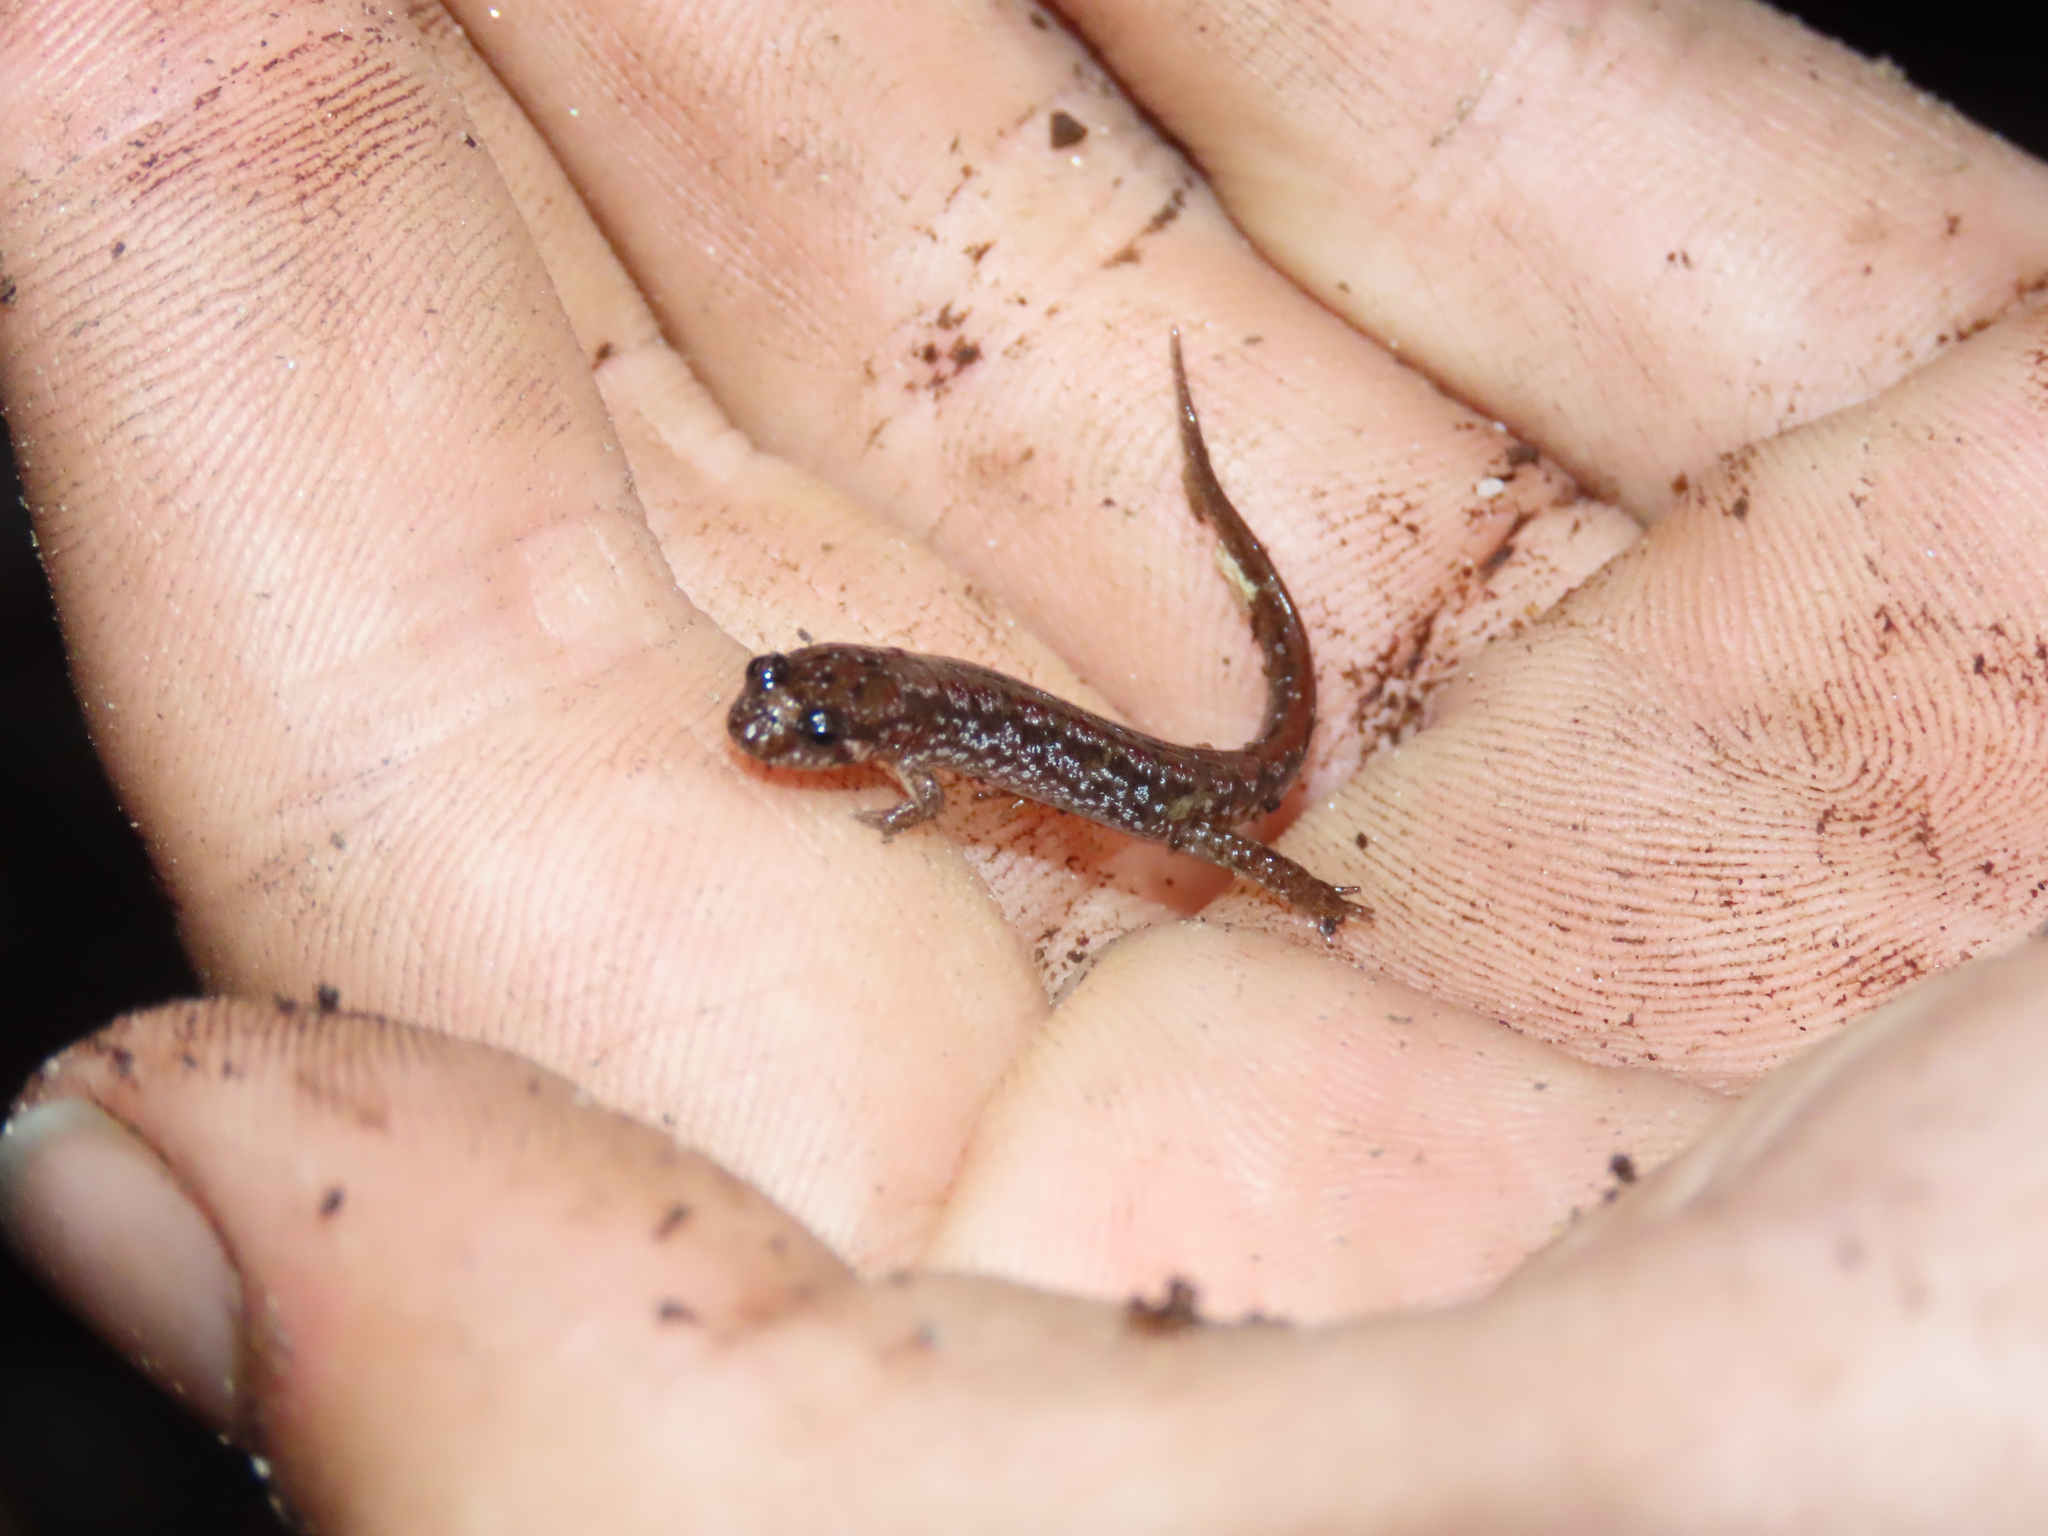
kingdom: Animalia
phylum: Chordata
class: Amphibia
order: Caudata
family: Plethodontidae
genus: Desmognathus
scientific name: Desmognathus fuscus
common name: Northern dusky salamander
